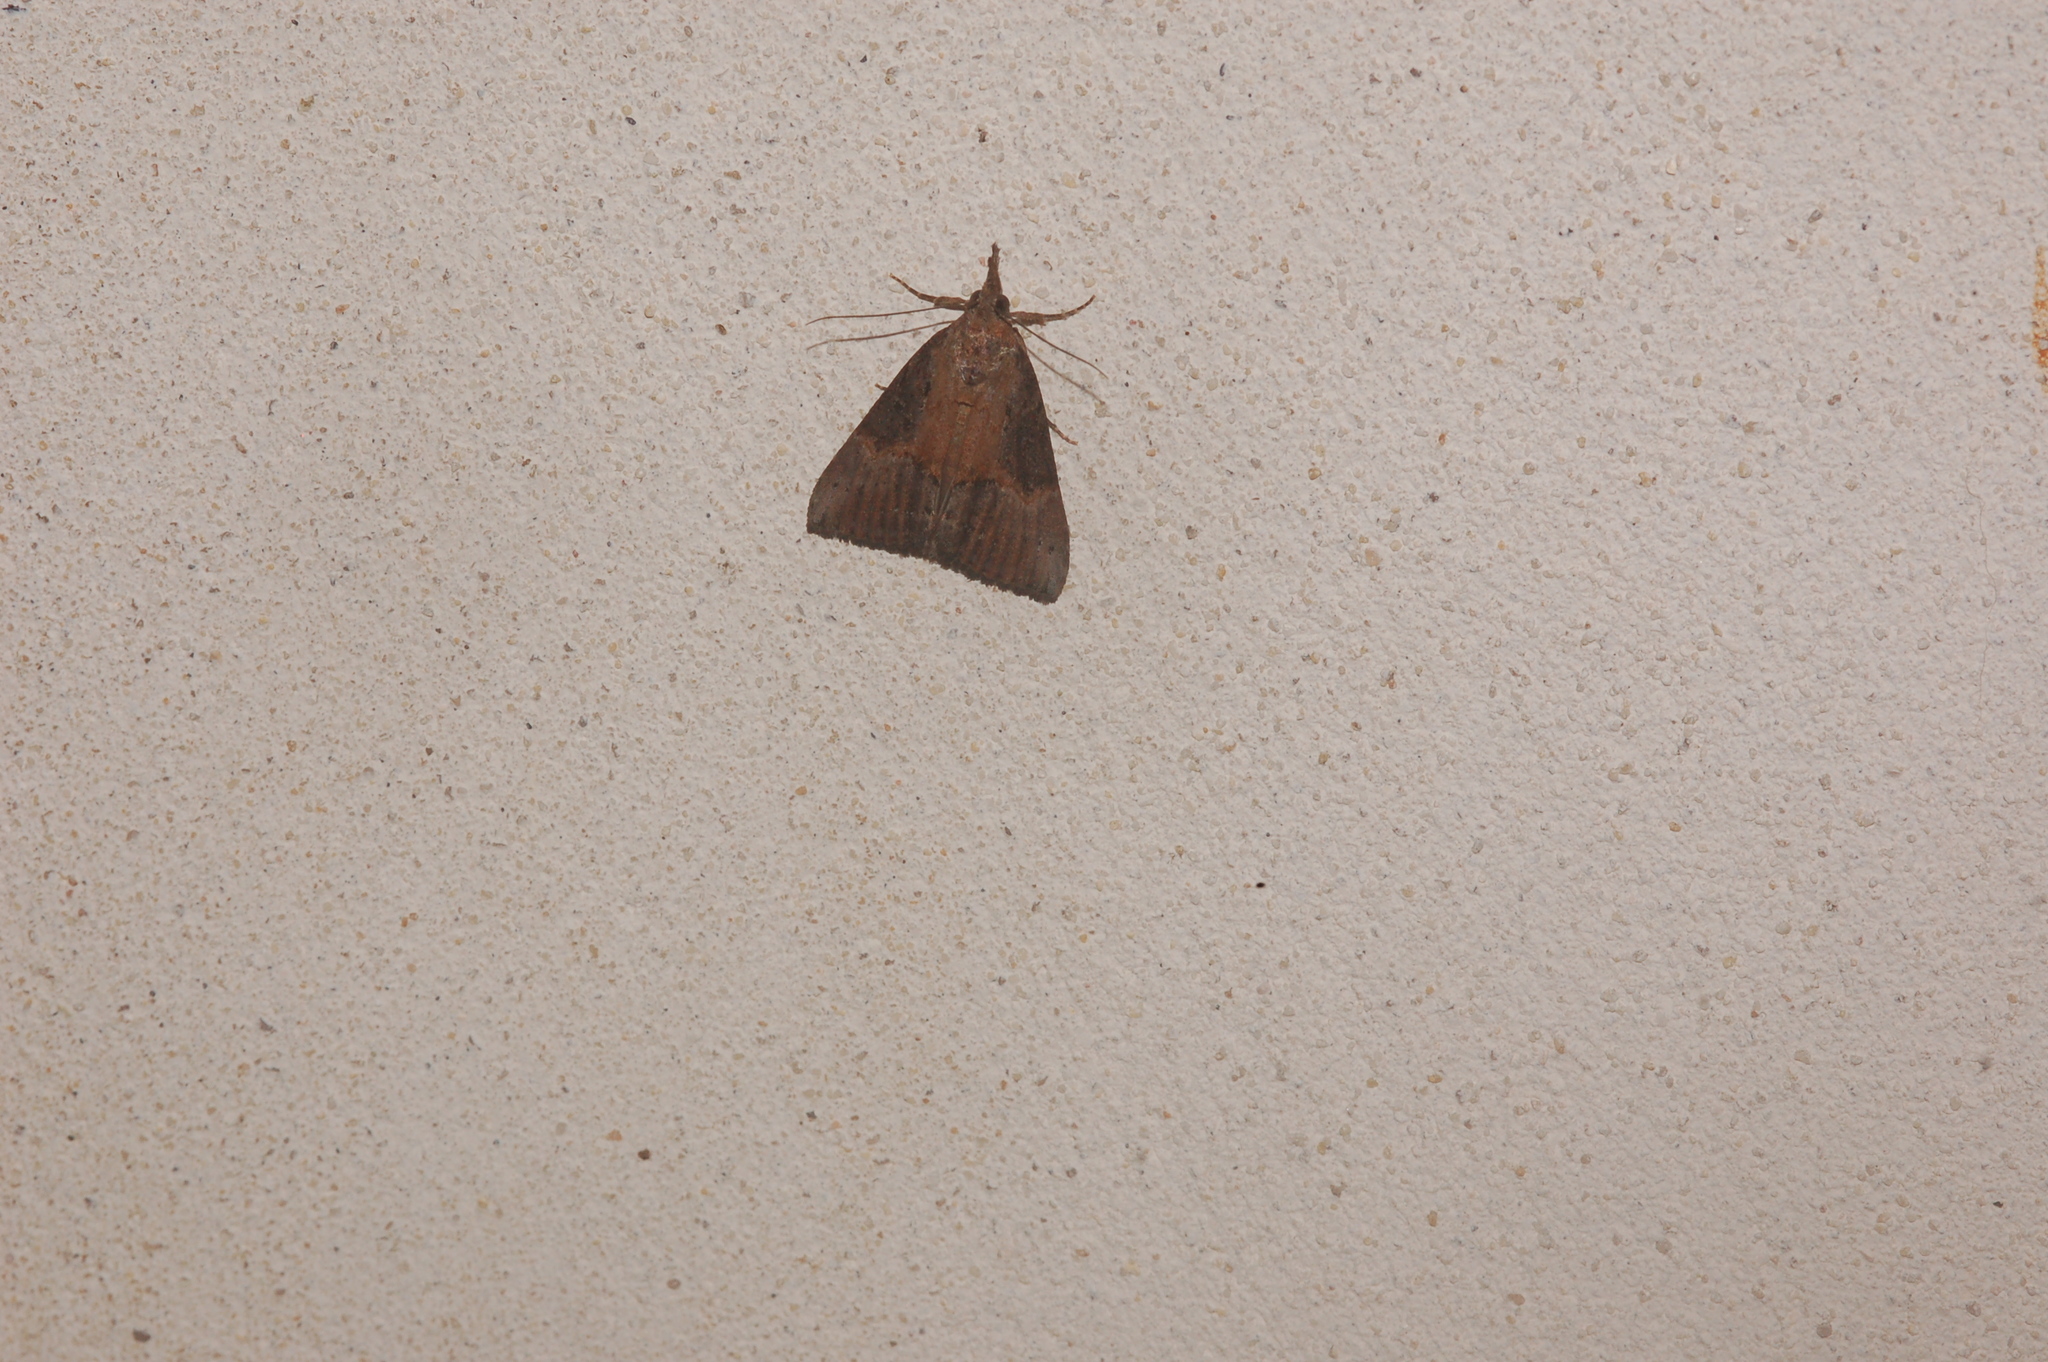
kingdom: Animalia
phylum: Arthropoda
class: Insecta
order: Lepidoptera
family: Erebidae
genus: Hypena
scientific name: Hypena scabra
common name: Green cloverworm
